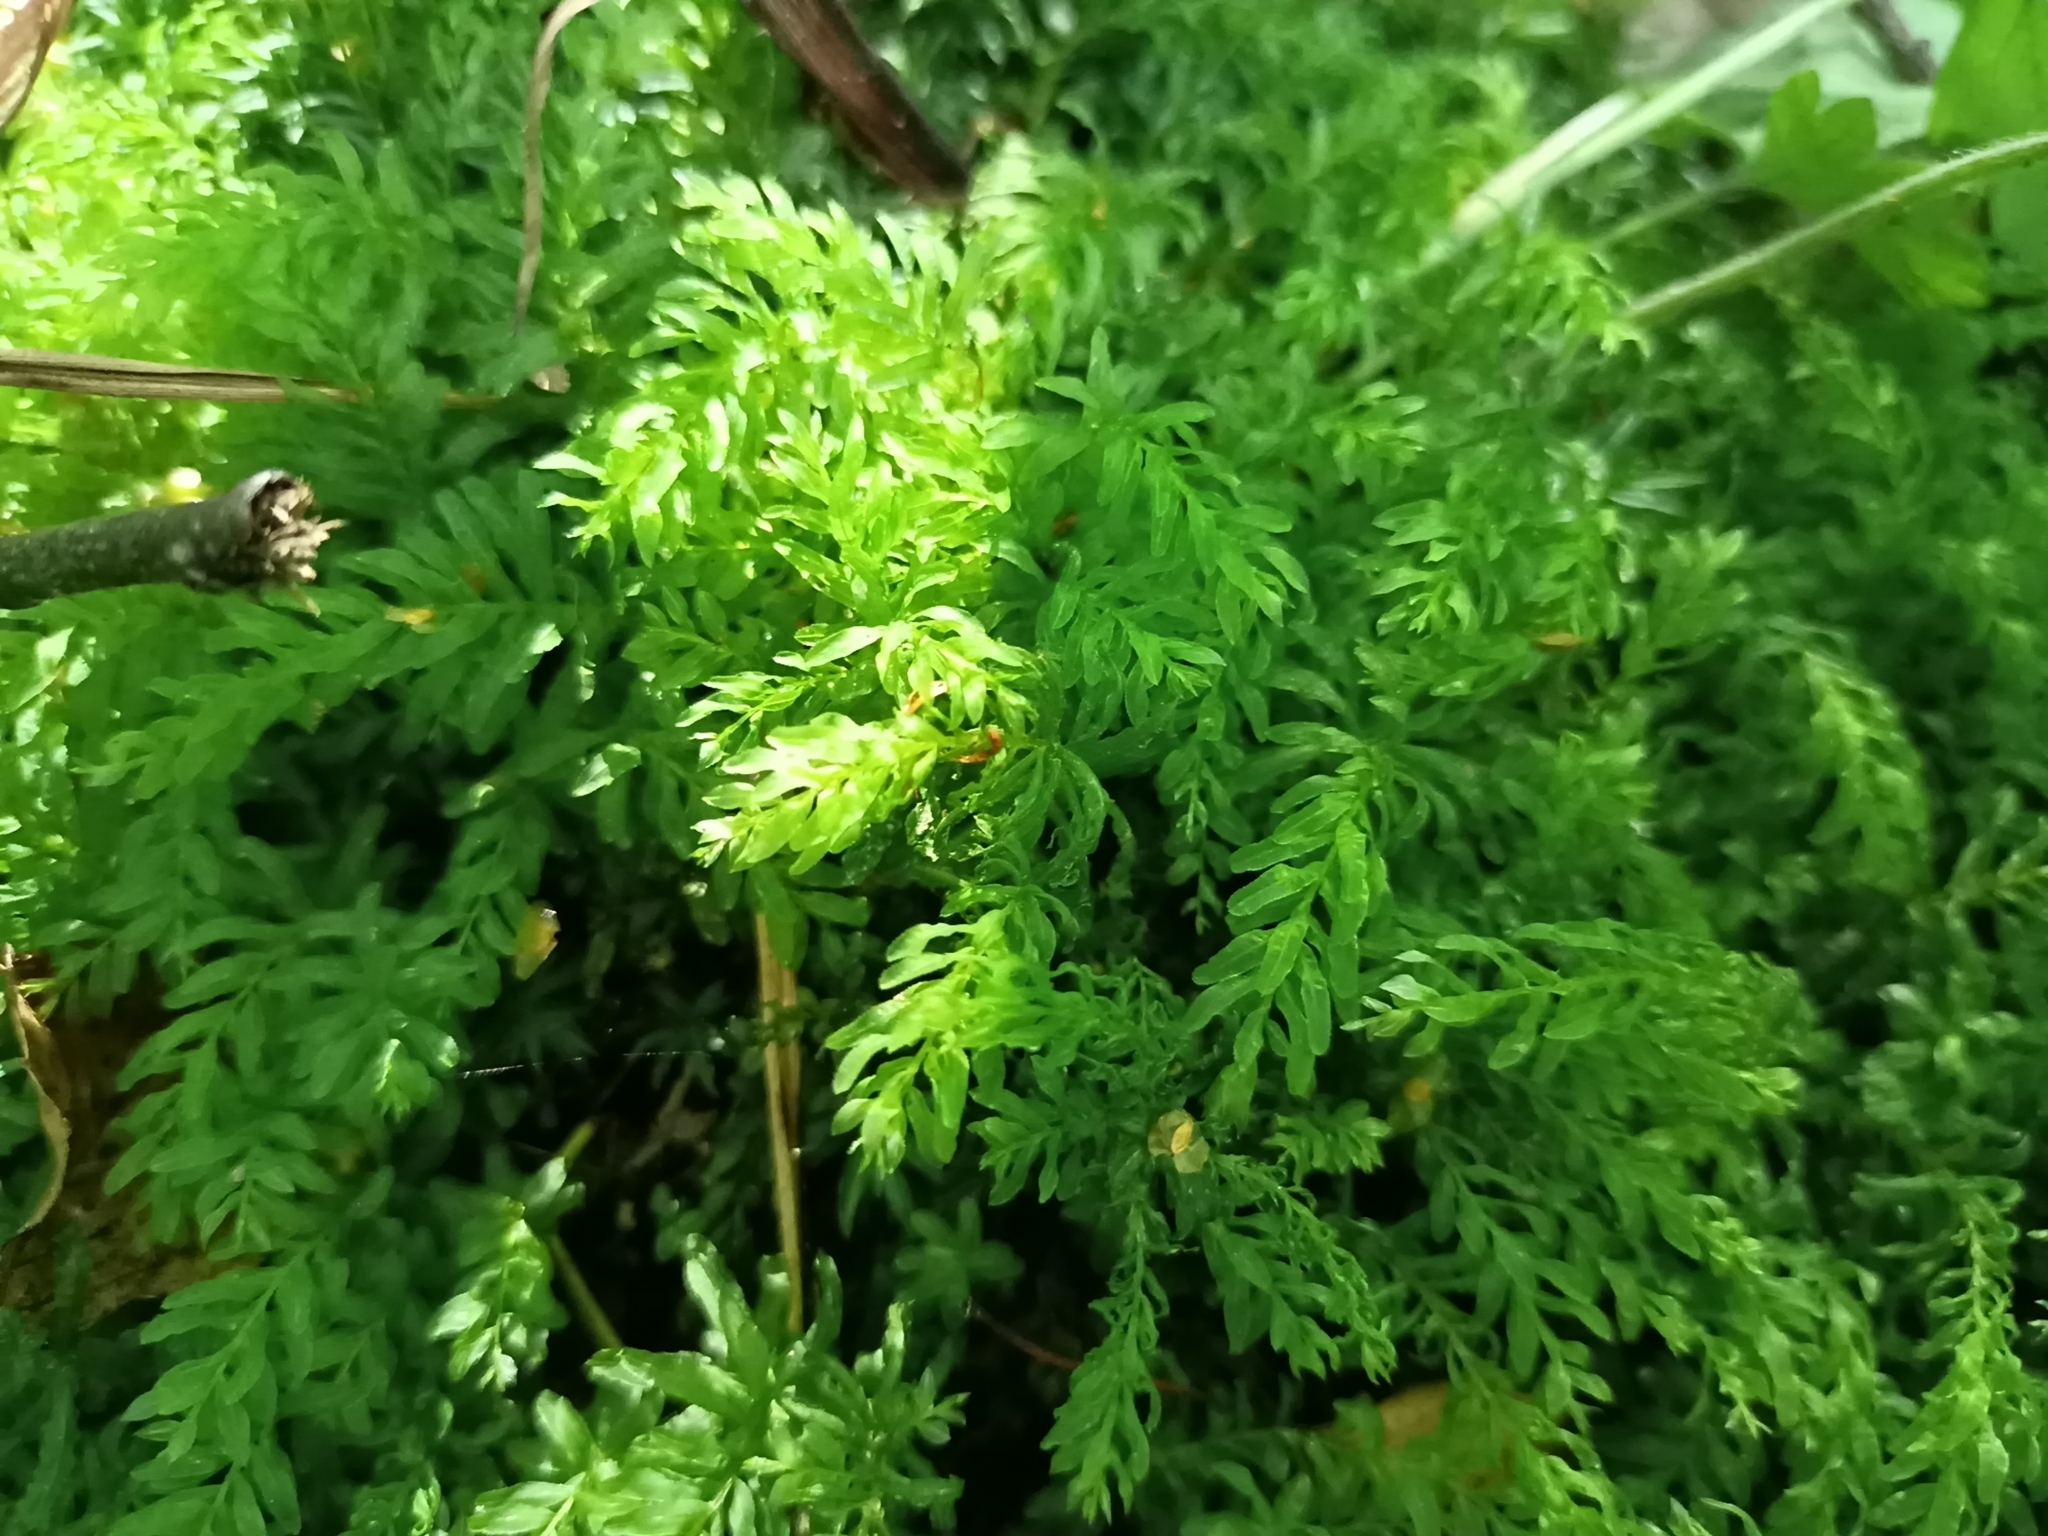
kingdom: Plantae
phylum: Bryophyta
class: Bryopsida
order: Bryales
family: Mniaceae
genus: Plagiomnium
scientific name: Plagiomnium undulatum
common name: Hart's-tongue thyme-moss
